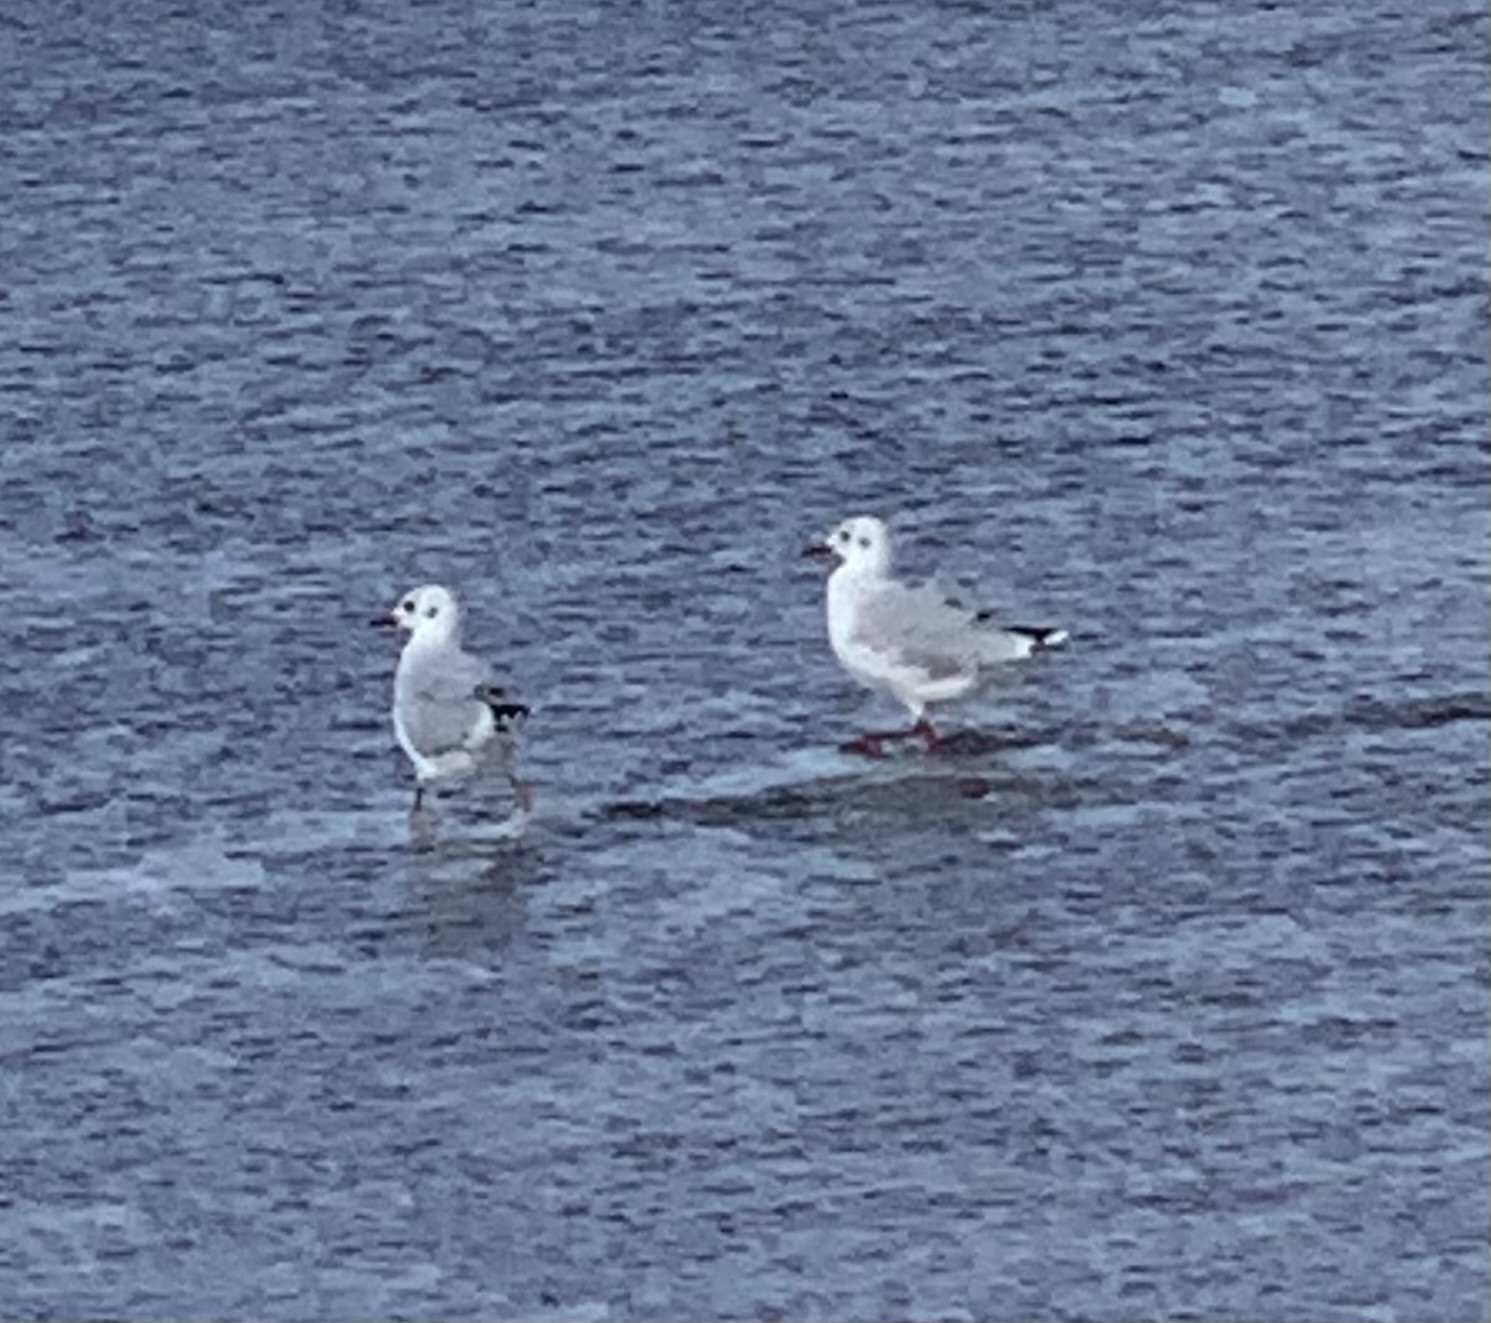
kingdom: Animalia
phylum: Chordata
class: Aves
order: Charadriiformes
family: Laridae
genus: Chroicocephalus
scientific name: Chroicocephalus maculipennis
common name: Brown-hooded gull
